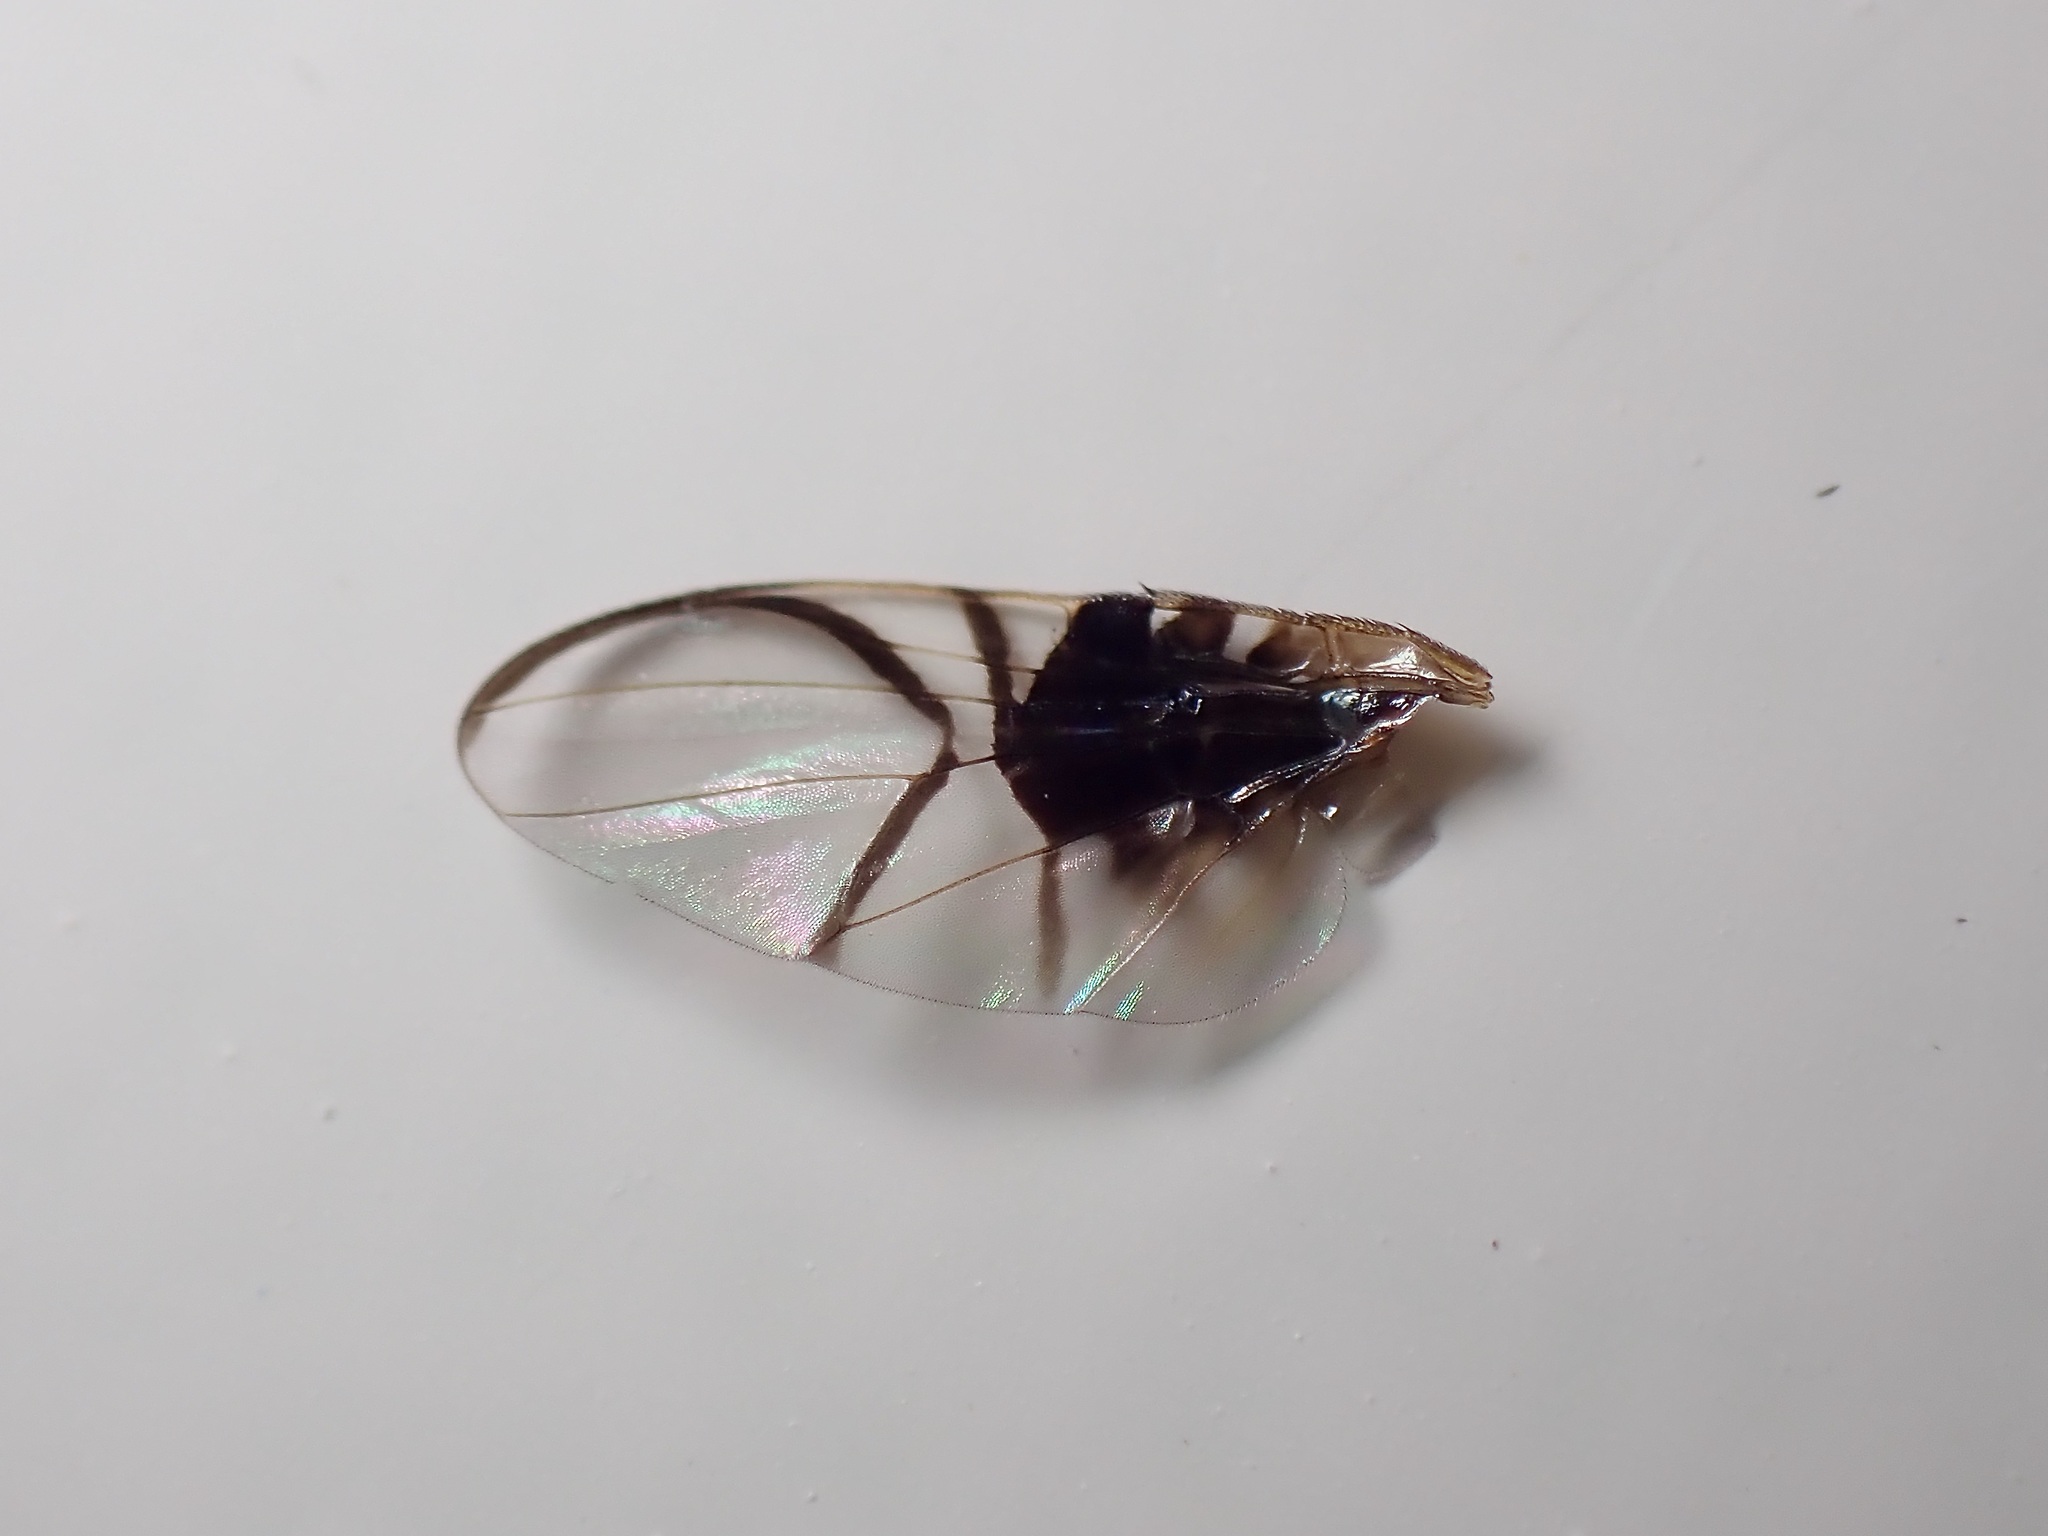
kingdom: Animalia
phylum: Arthropoda
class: Insecta
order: Diptera
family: Tephritidae
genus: Anomoia
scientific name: Anomoia purmunda
